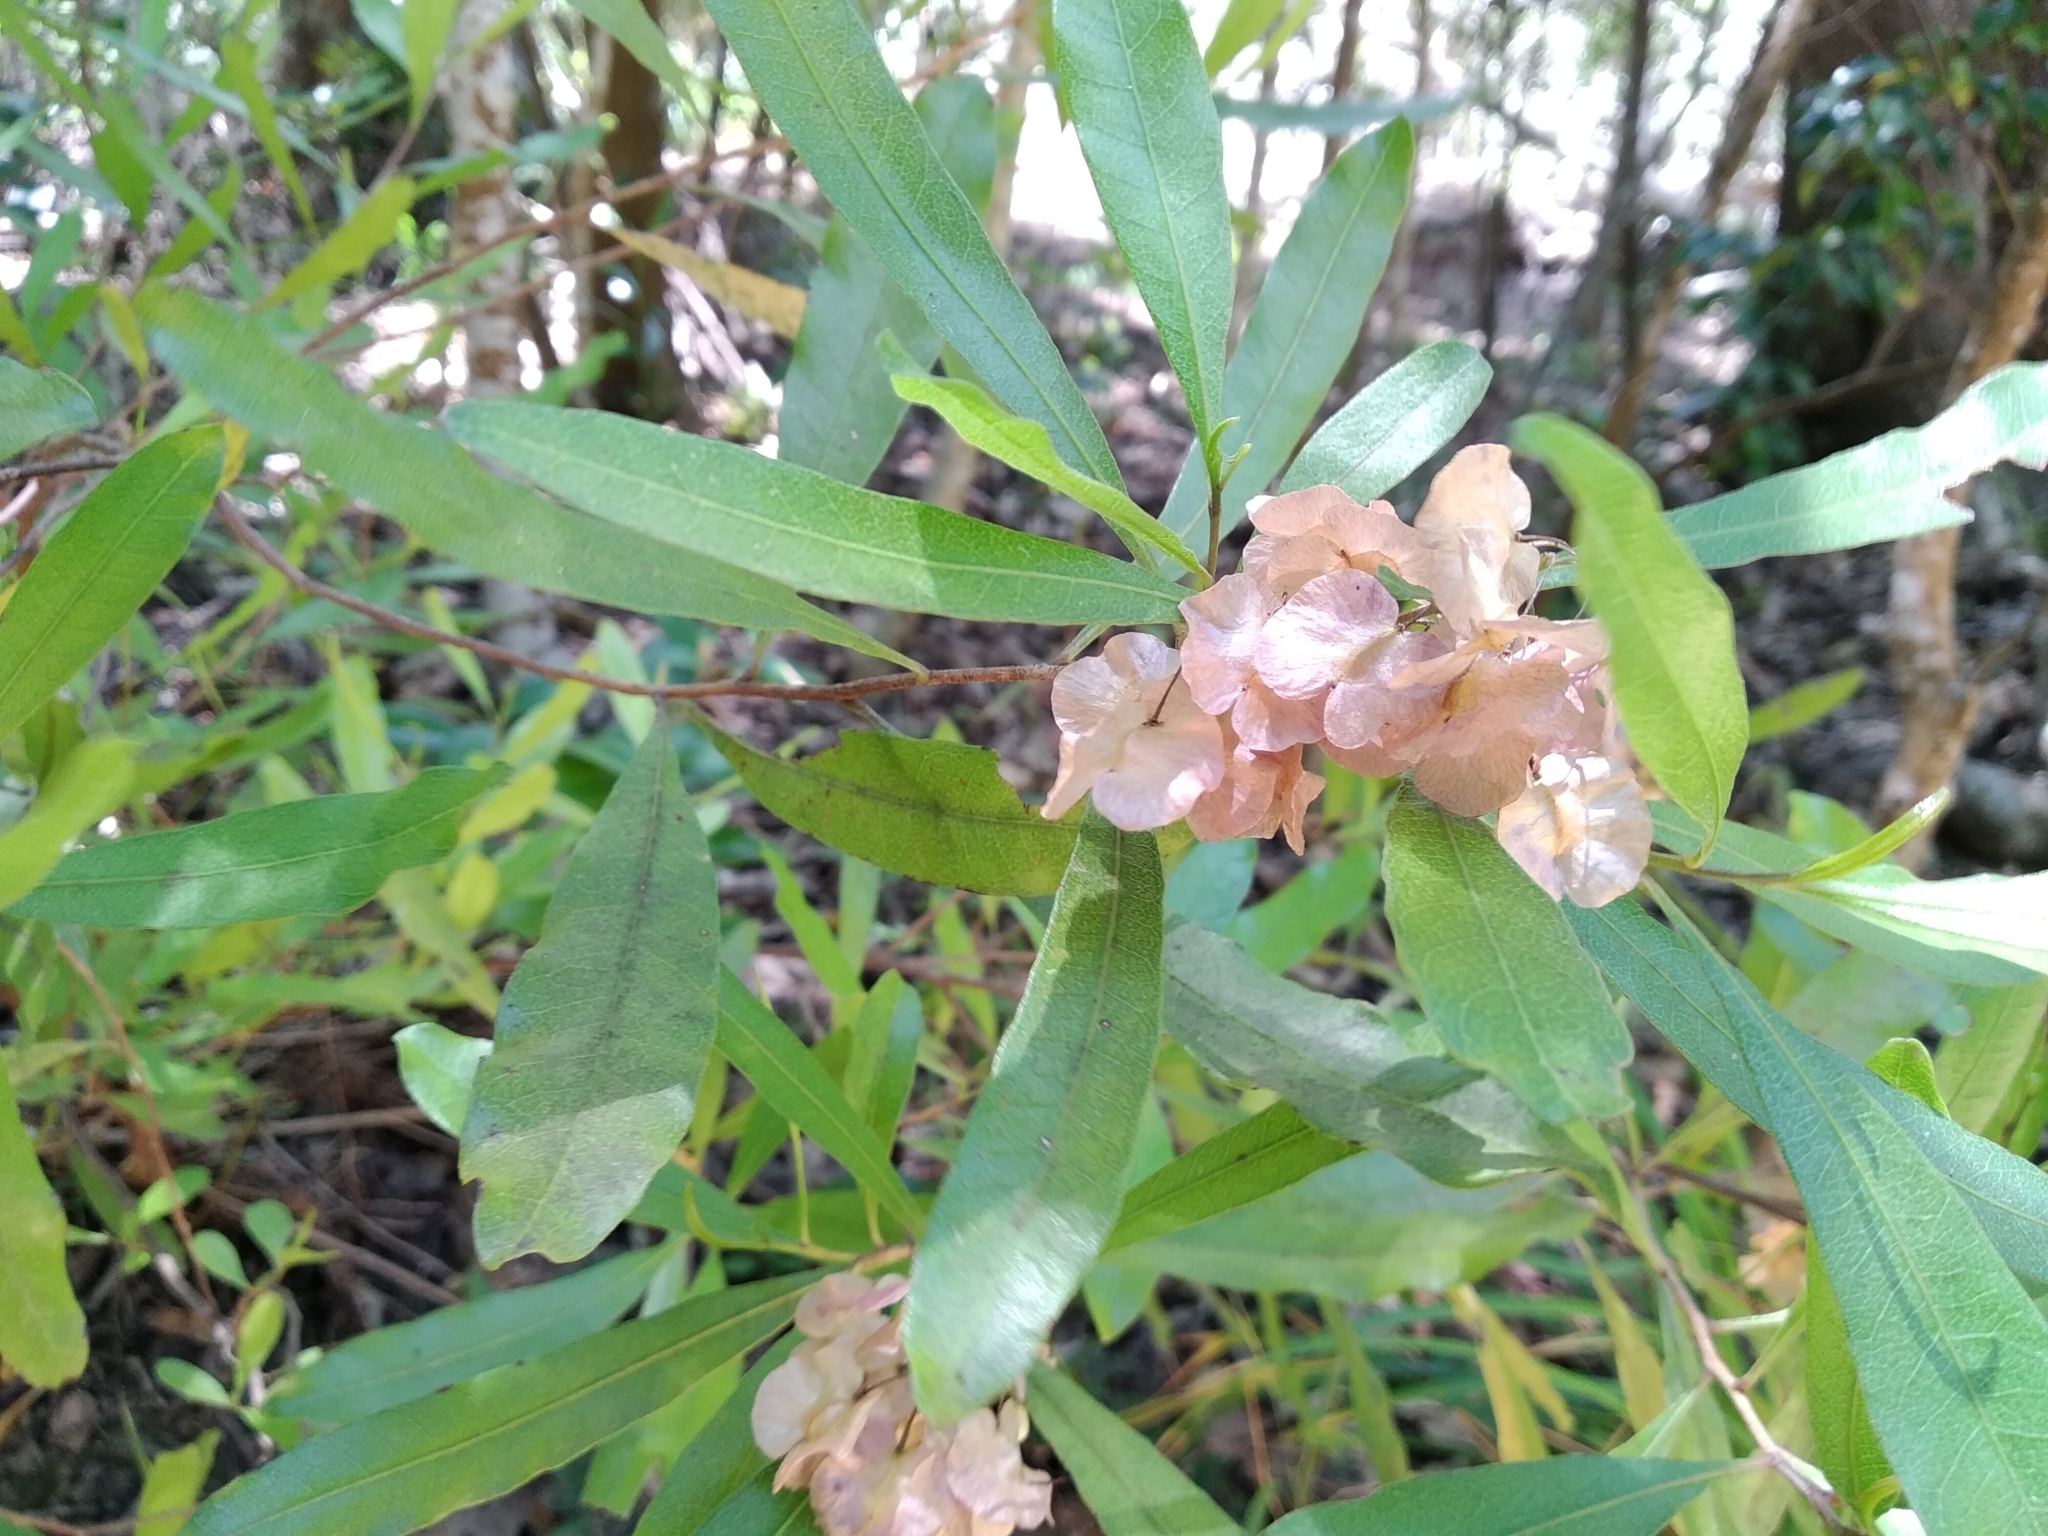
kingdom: Plantae
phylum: Tracheophyta
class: Magnoliopsida
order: Sapindales
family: Sapindaceae
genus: Dodonaea
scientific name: Dodonaea viscosa
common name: Hopbush
